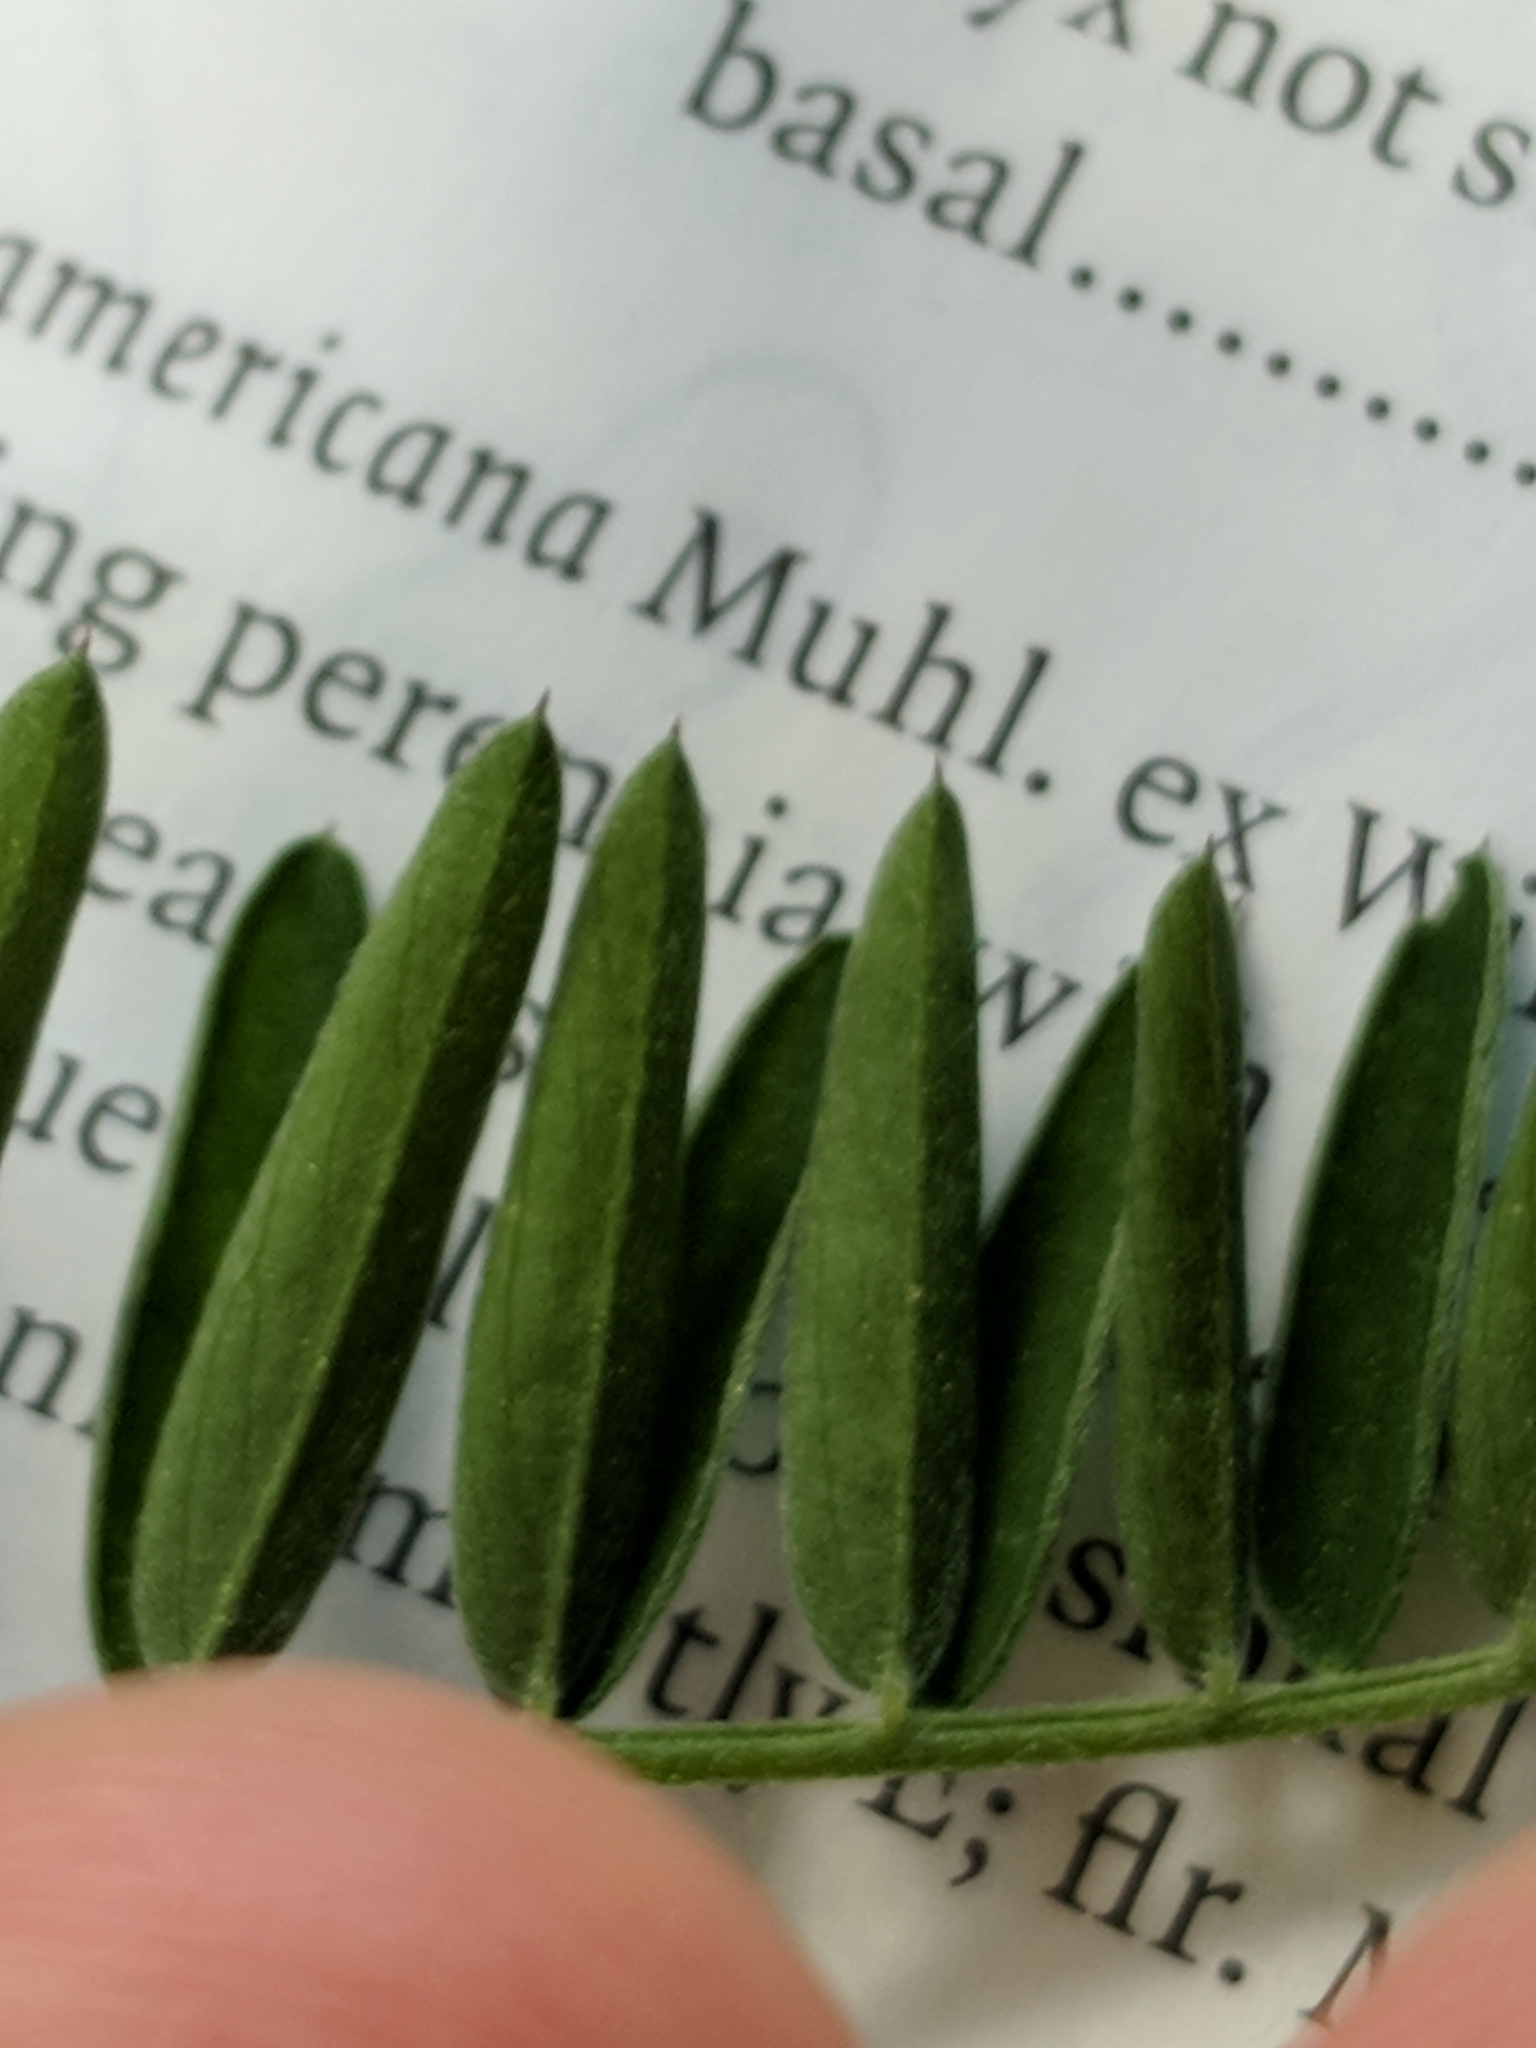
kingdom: Plantae
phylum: Tracheophyta
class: Magnoliopsida
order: Fabales
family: Fabaceae
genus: Vicia
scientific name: Vicia cracca
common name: Bird vetch
